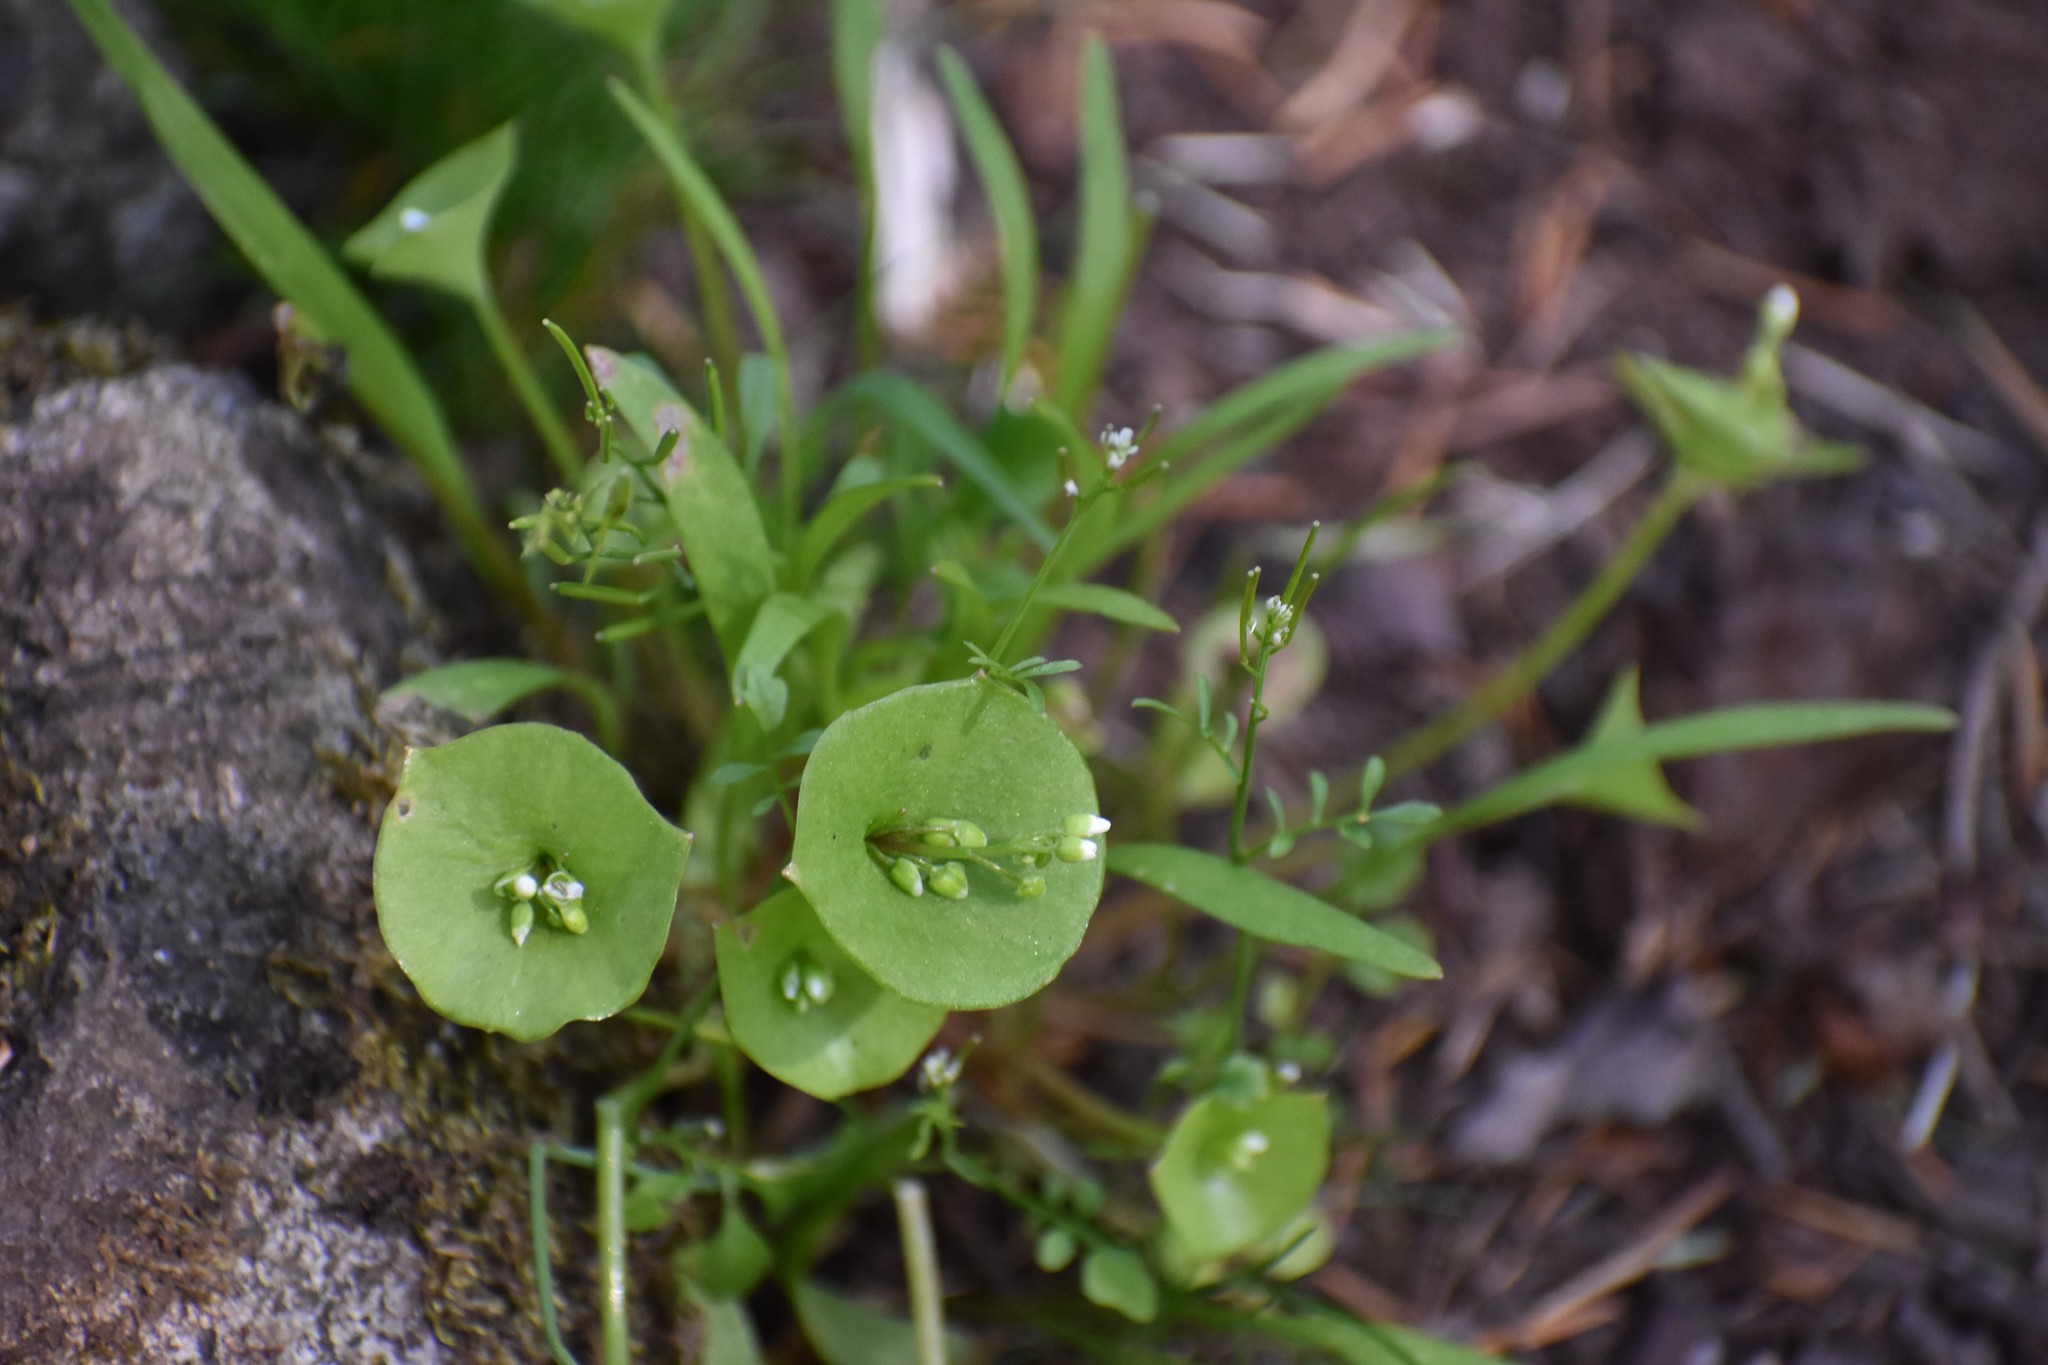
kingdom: Plantae
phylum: Tracheophyta
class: Magnoliopsida
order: Caryophyllales
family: Montiaceae
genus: Claytonia
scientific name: Claytonia perfoliata
